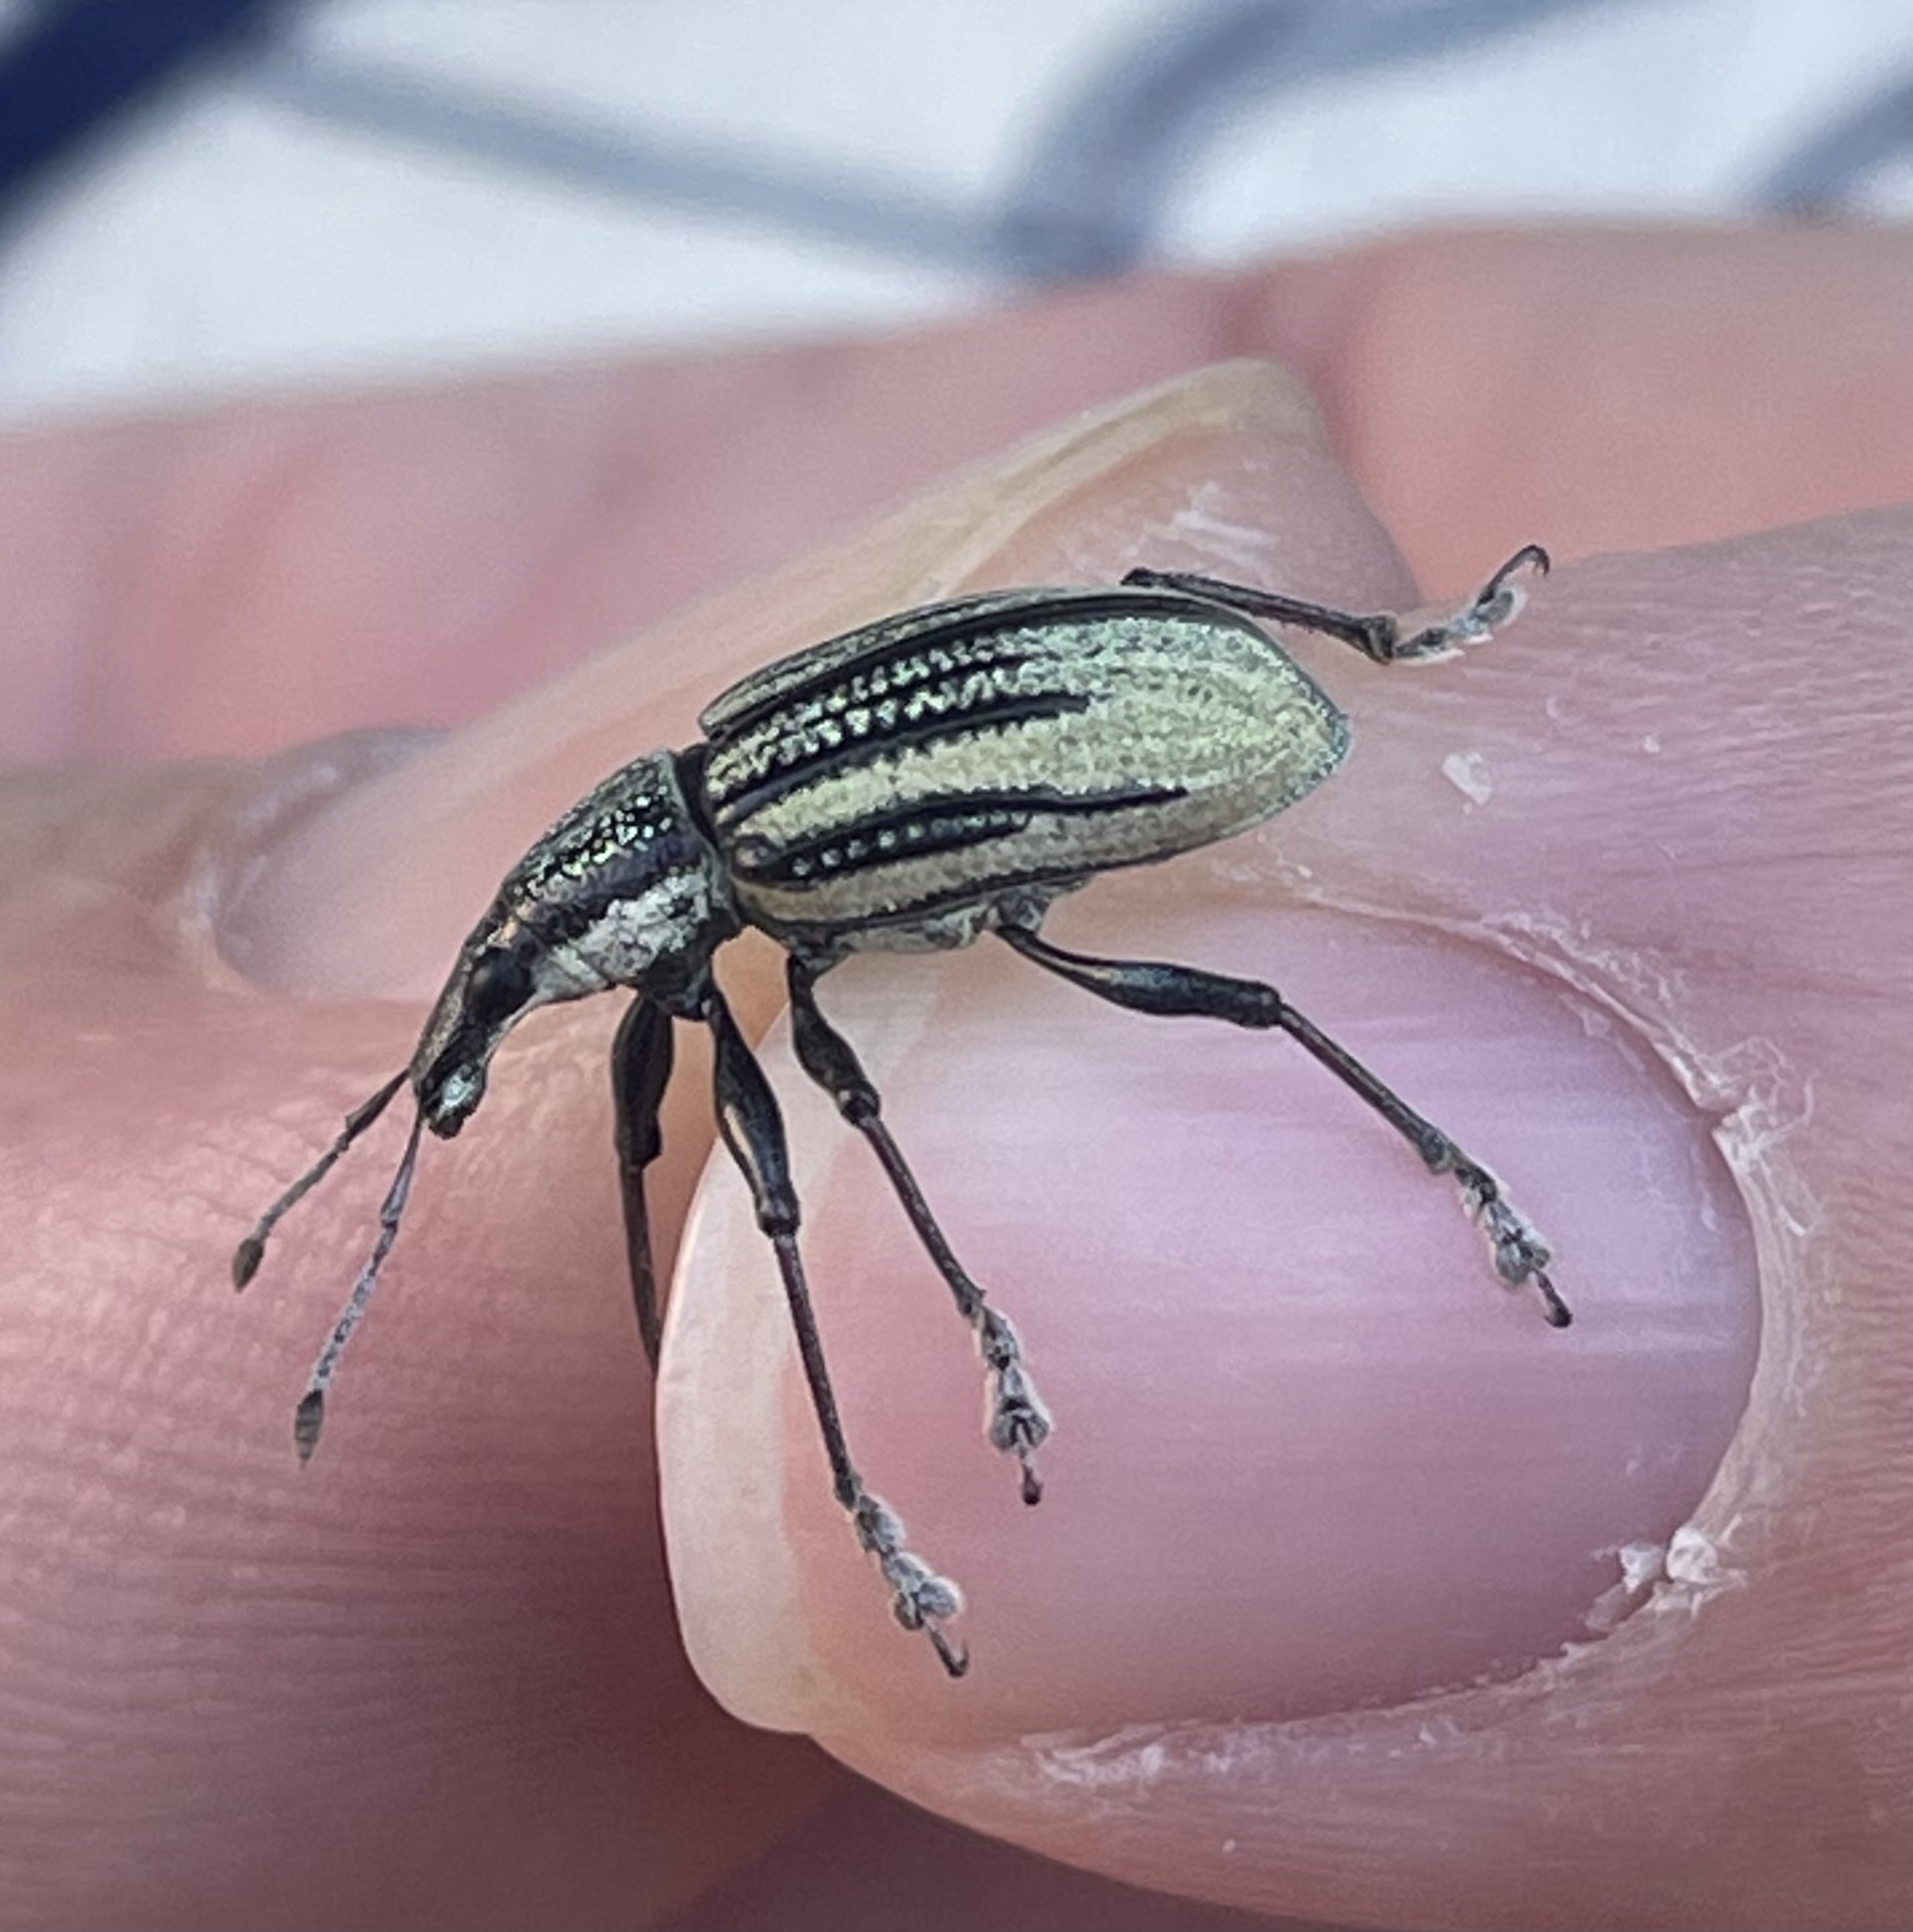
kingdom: Animalia
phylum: Arthropoda
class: Insecta
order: Coleoptera
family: Curculionidae
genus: Diaprepes
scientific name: Diaprepes abbreviatus
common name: Root weevil
